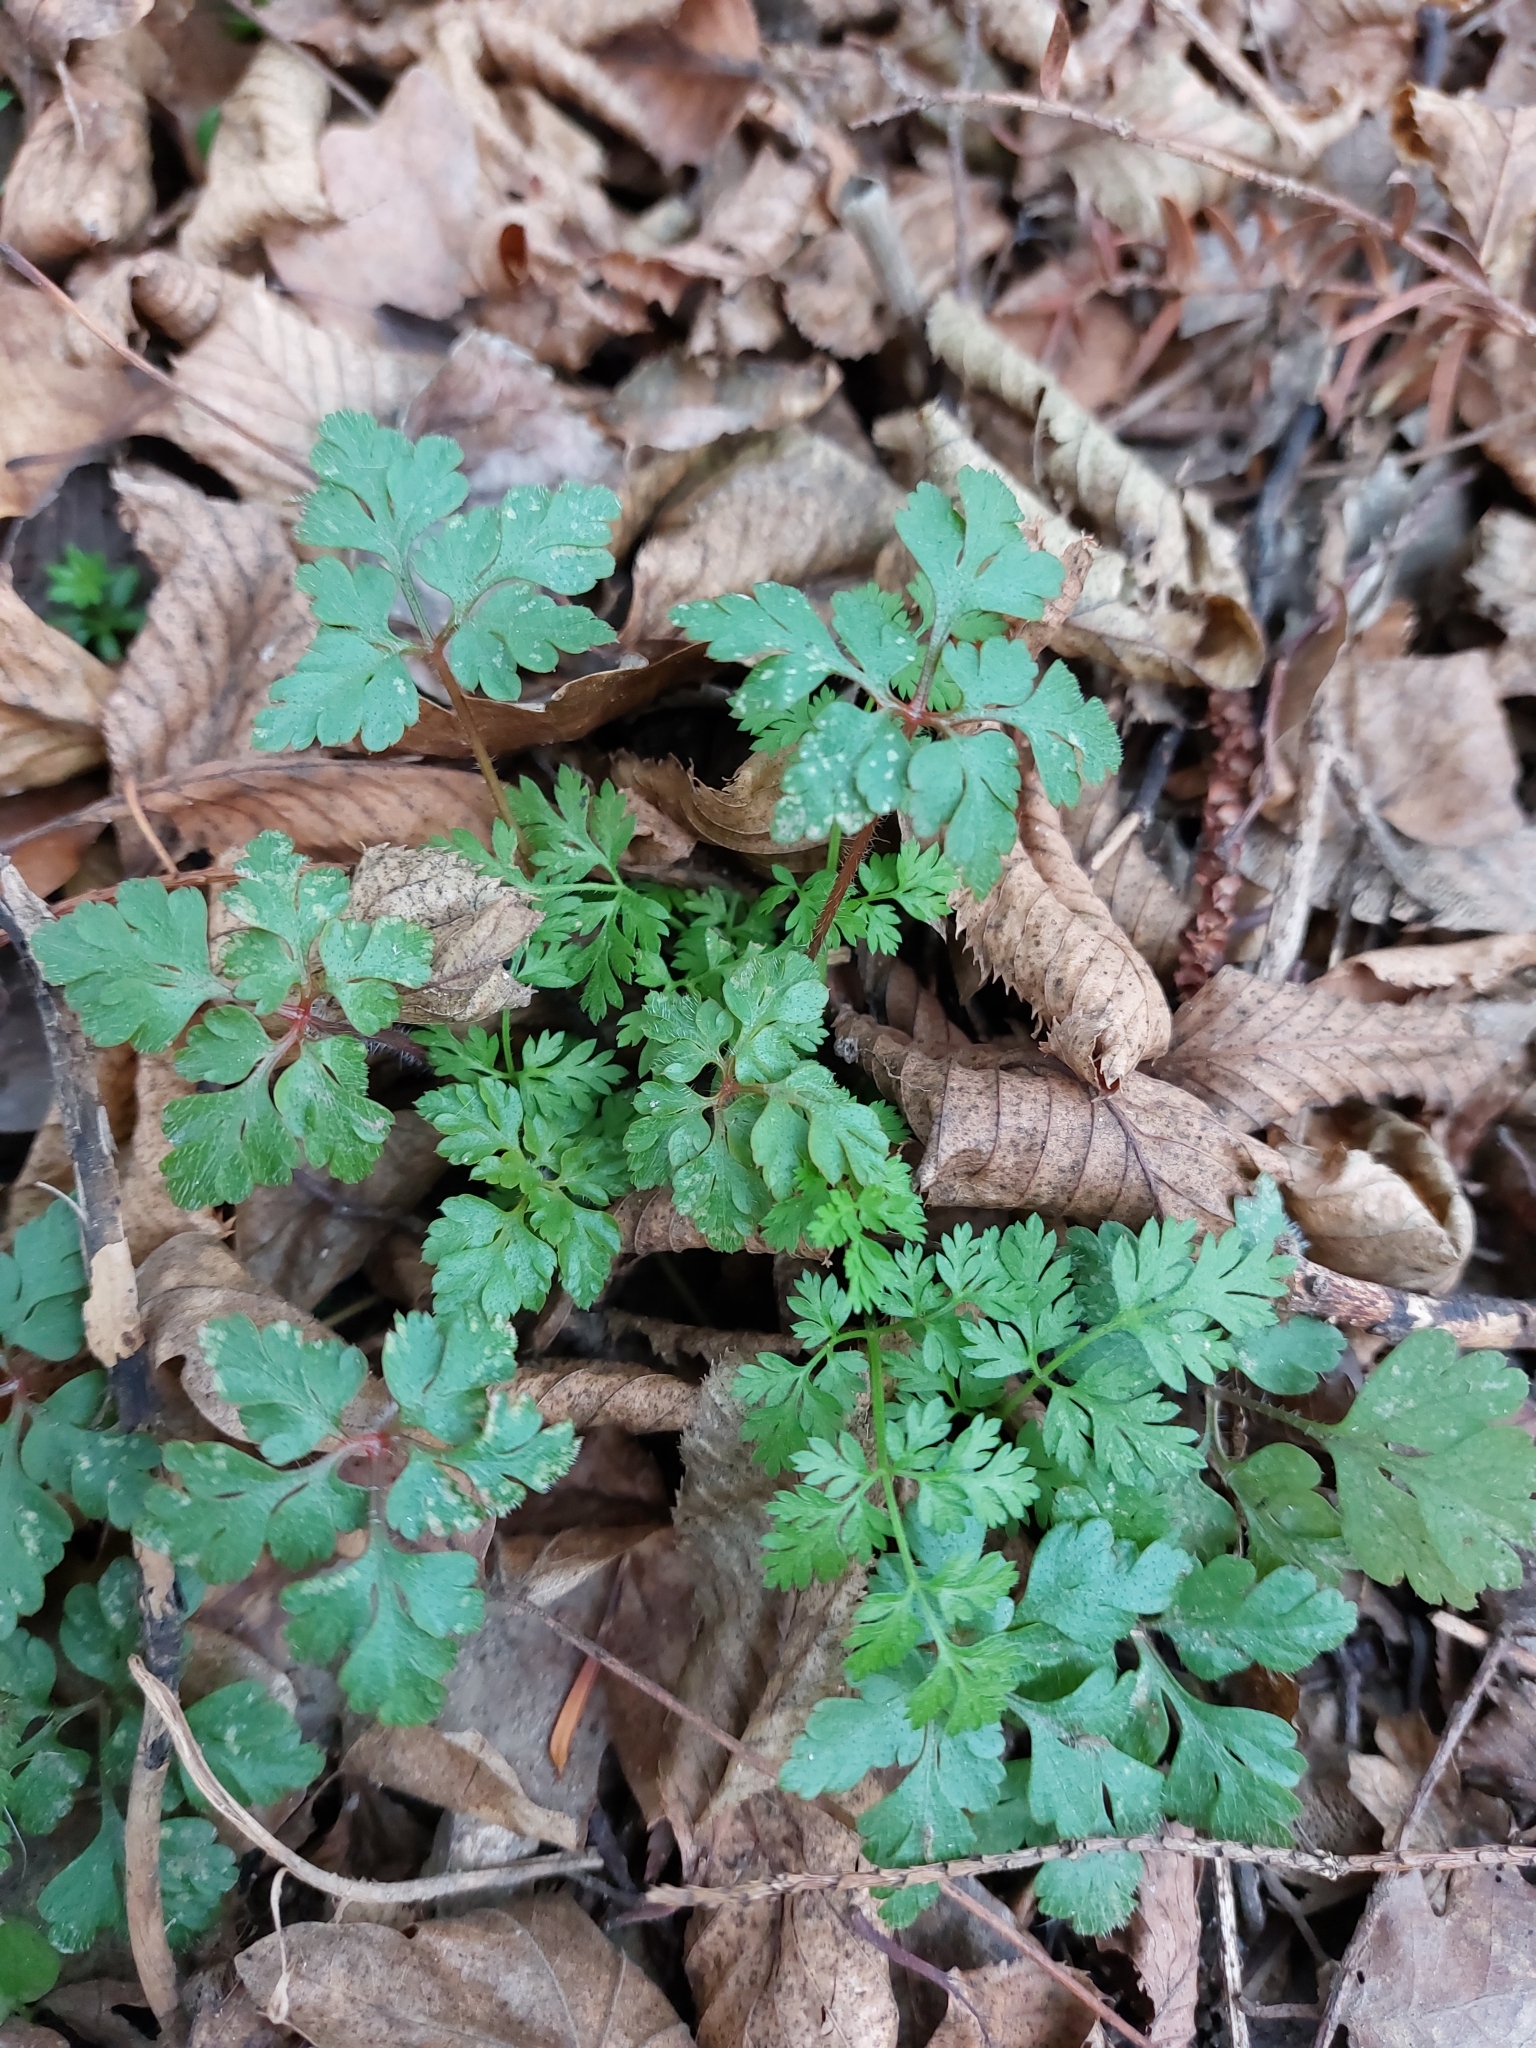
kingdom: Plantae
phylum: Tracheophyta
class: Magnoliopsida
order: Geraniales
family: Geraniaceae
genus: Geranium
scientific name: Geranium robertianum
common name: Herb-robert
